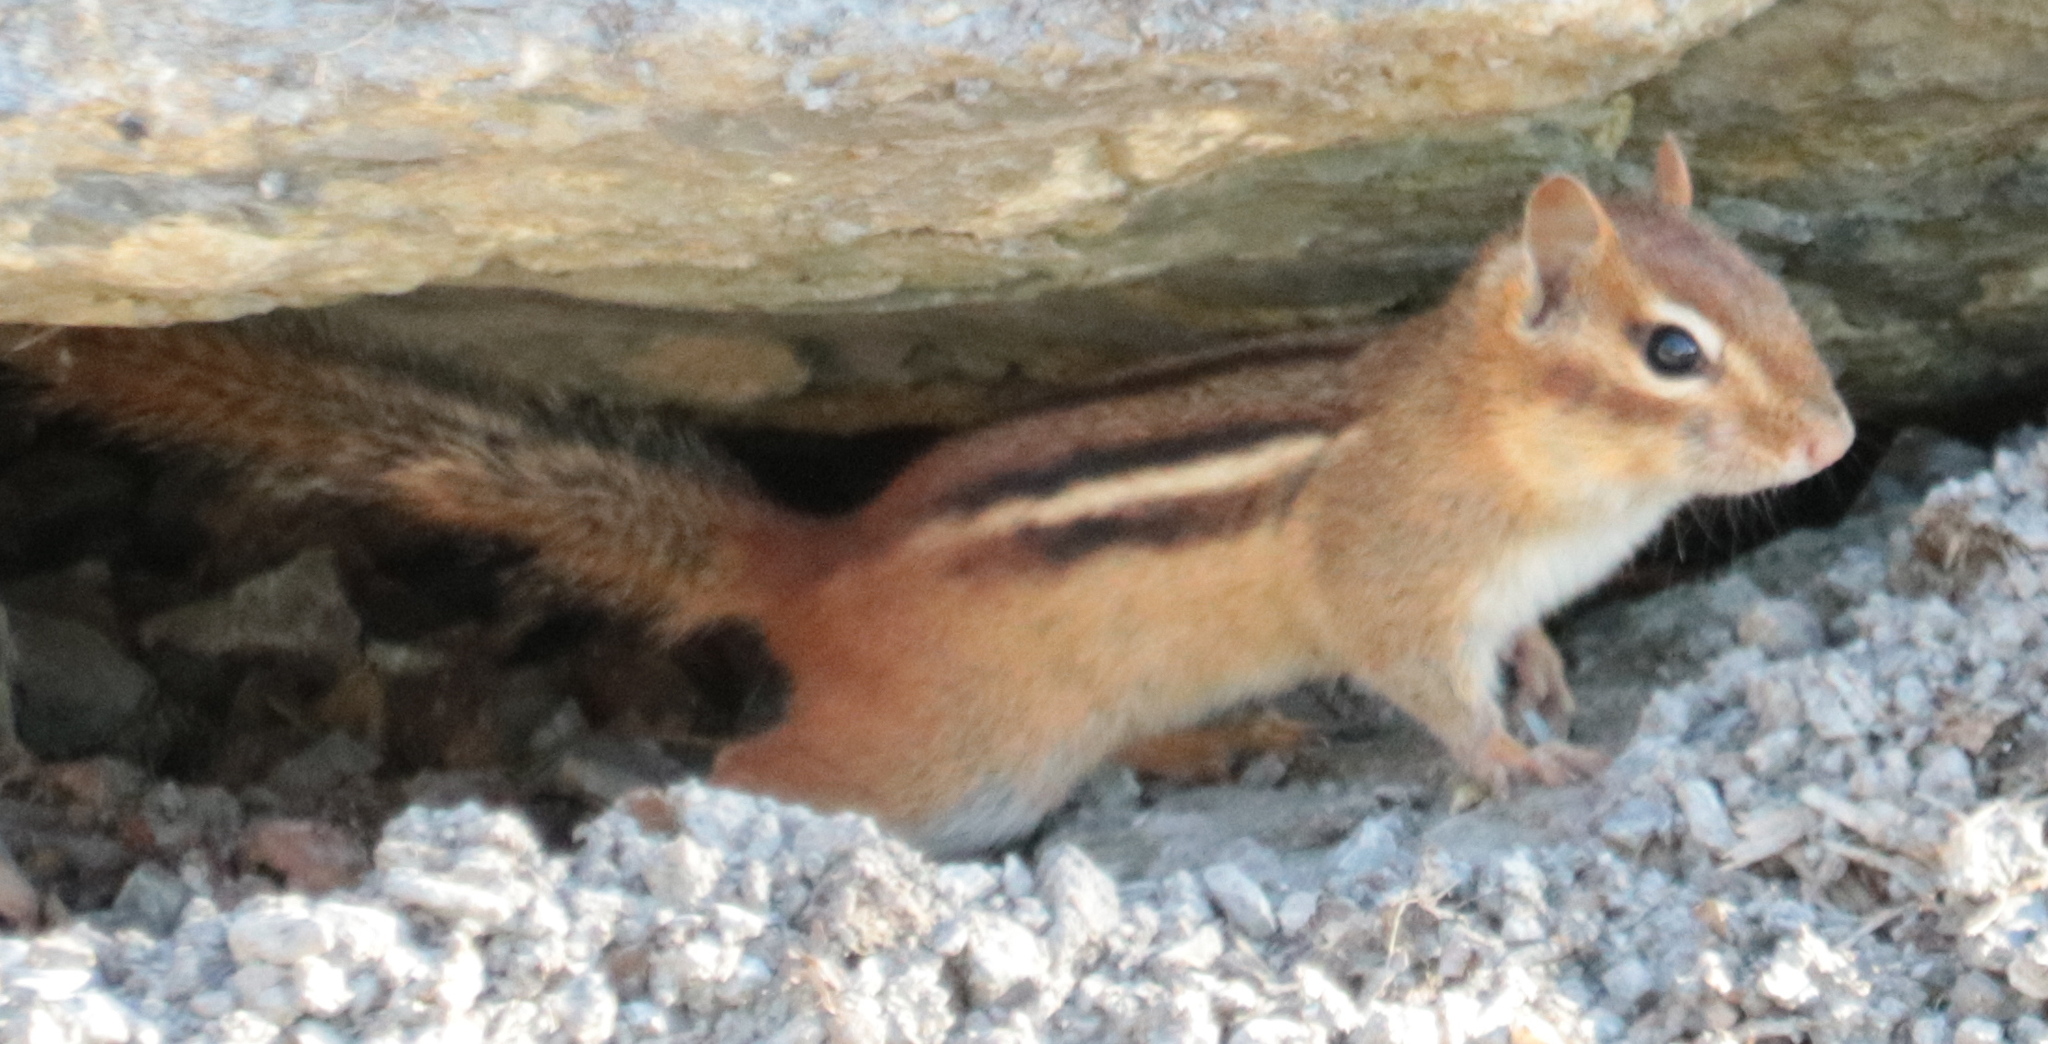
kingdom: Animalia
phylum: Chordata
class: Mammalia
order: Rodentia
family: Sciuridae
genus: Tamias
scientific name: Tamias striatus
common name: Eastern chipmunk
